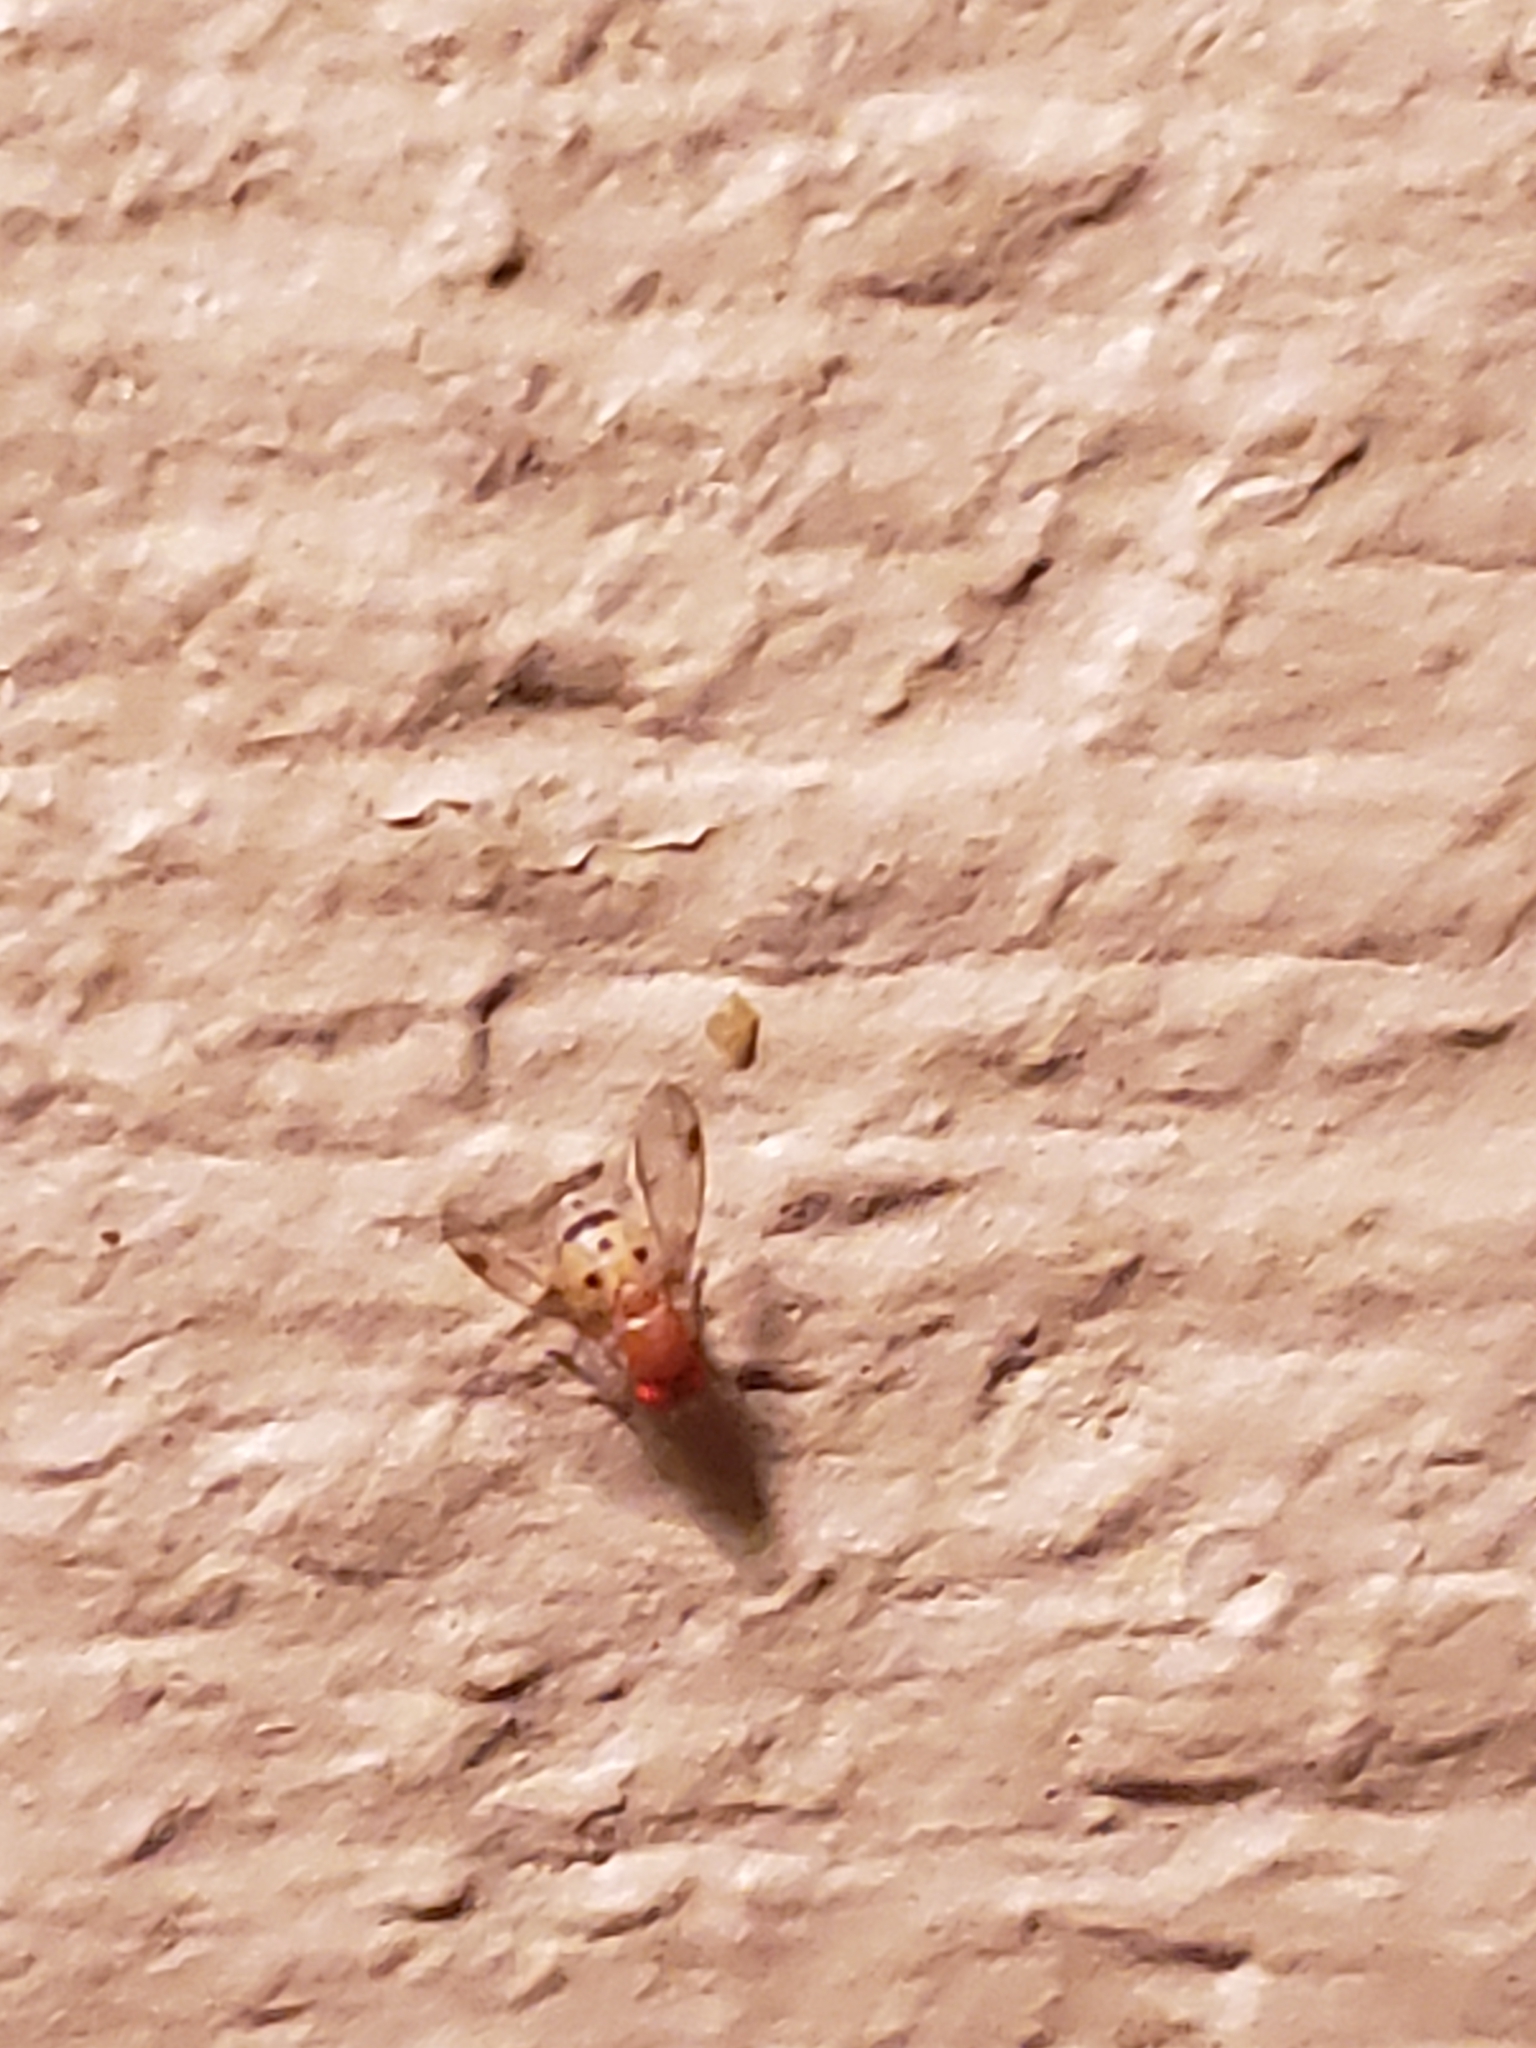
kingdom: Animalia
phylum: Arthropoda
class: Insecta
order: Diptera
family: Drosophilidae
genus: Leucophenga
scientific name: Leucophenga varia
